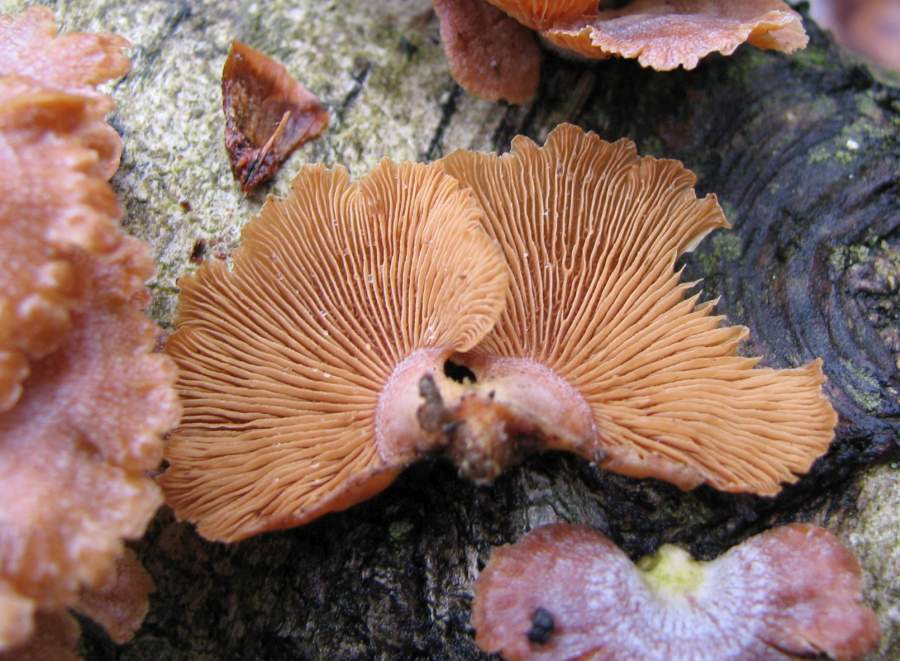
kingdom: Fungi
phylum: Basidiomycota
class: Agaricomycetes
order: Agaricales
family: Mycenaceae
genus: Panellus
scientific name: Panellus stipticus
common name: Bitter oysterling
